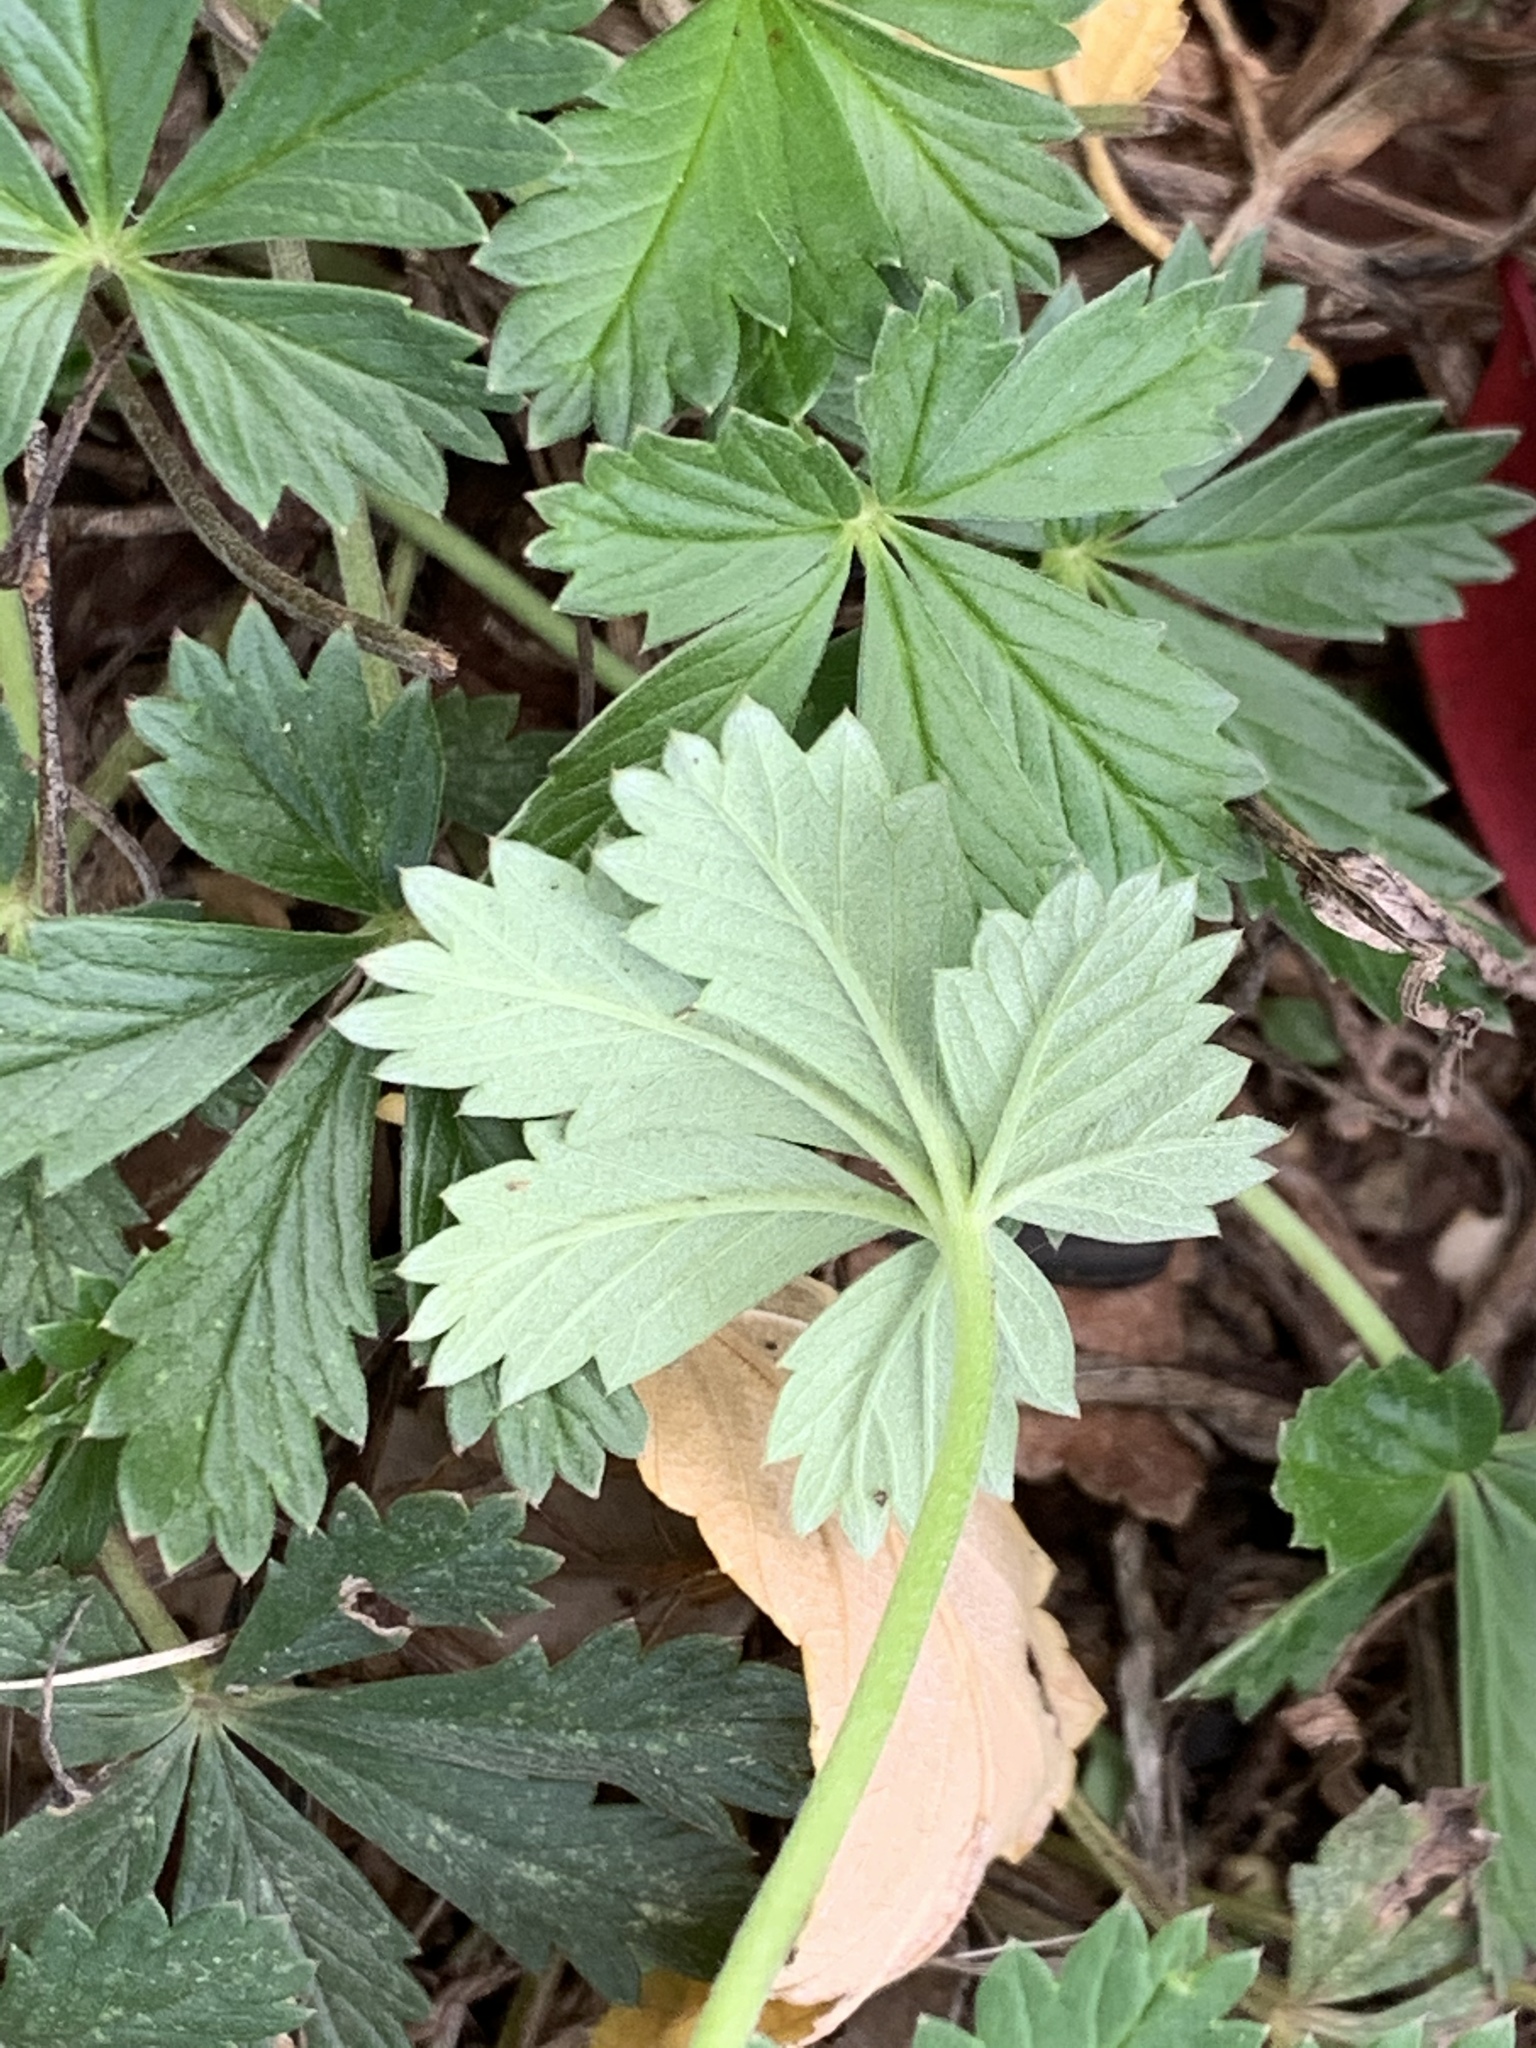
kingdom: Plantae
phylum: Tracheophyta
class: Magnoliopsida
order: Rosales
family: Rosaceae
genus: Potentilla
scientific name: Potentilla argentea
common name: Hoary cinquefoil
